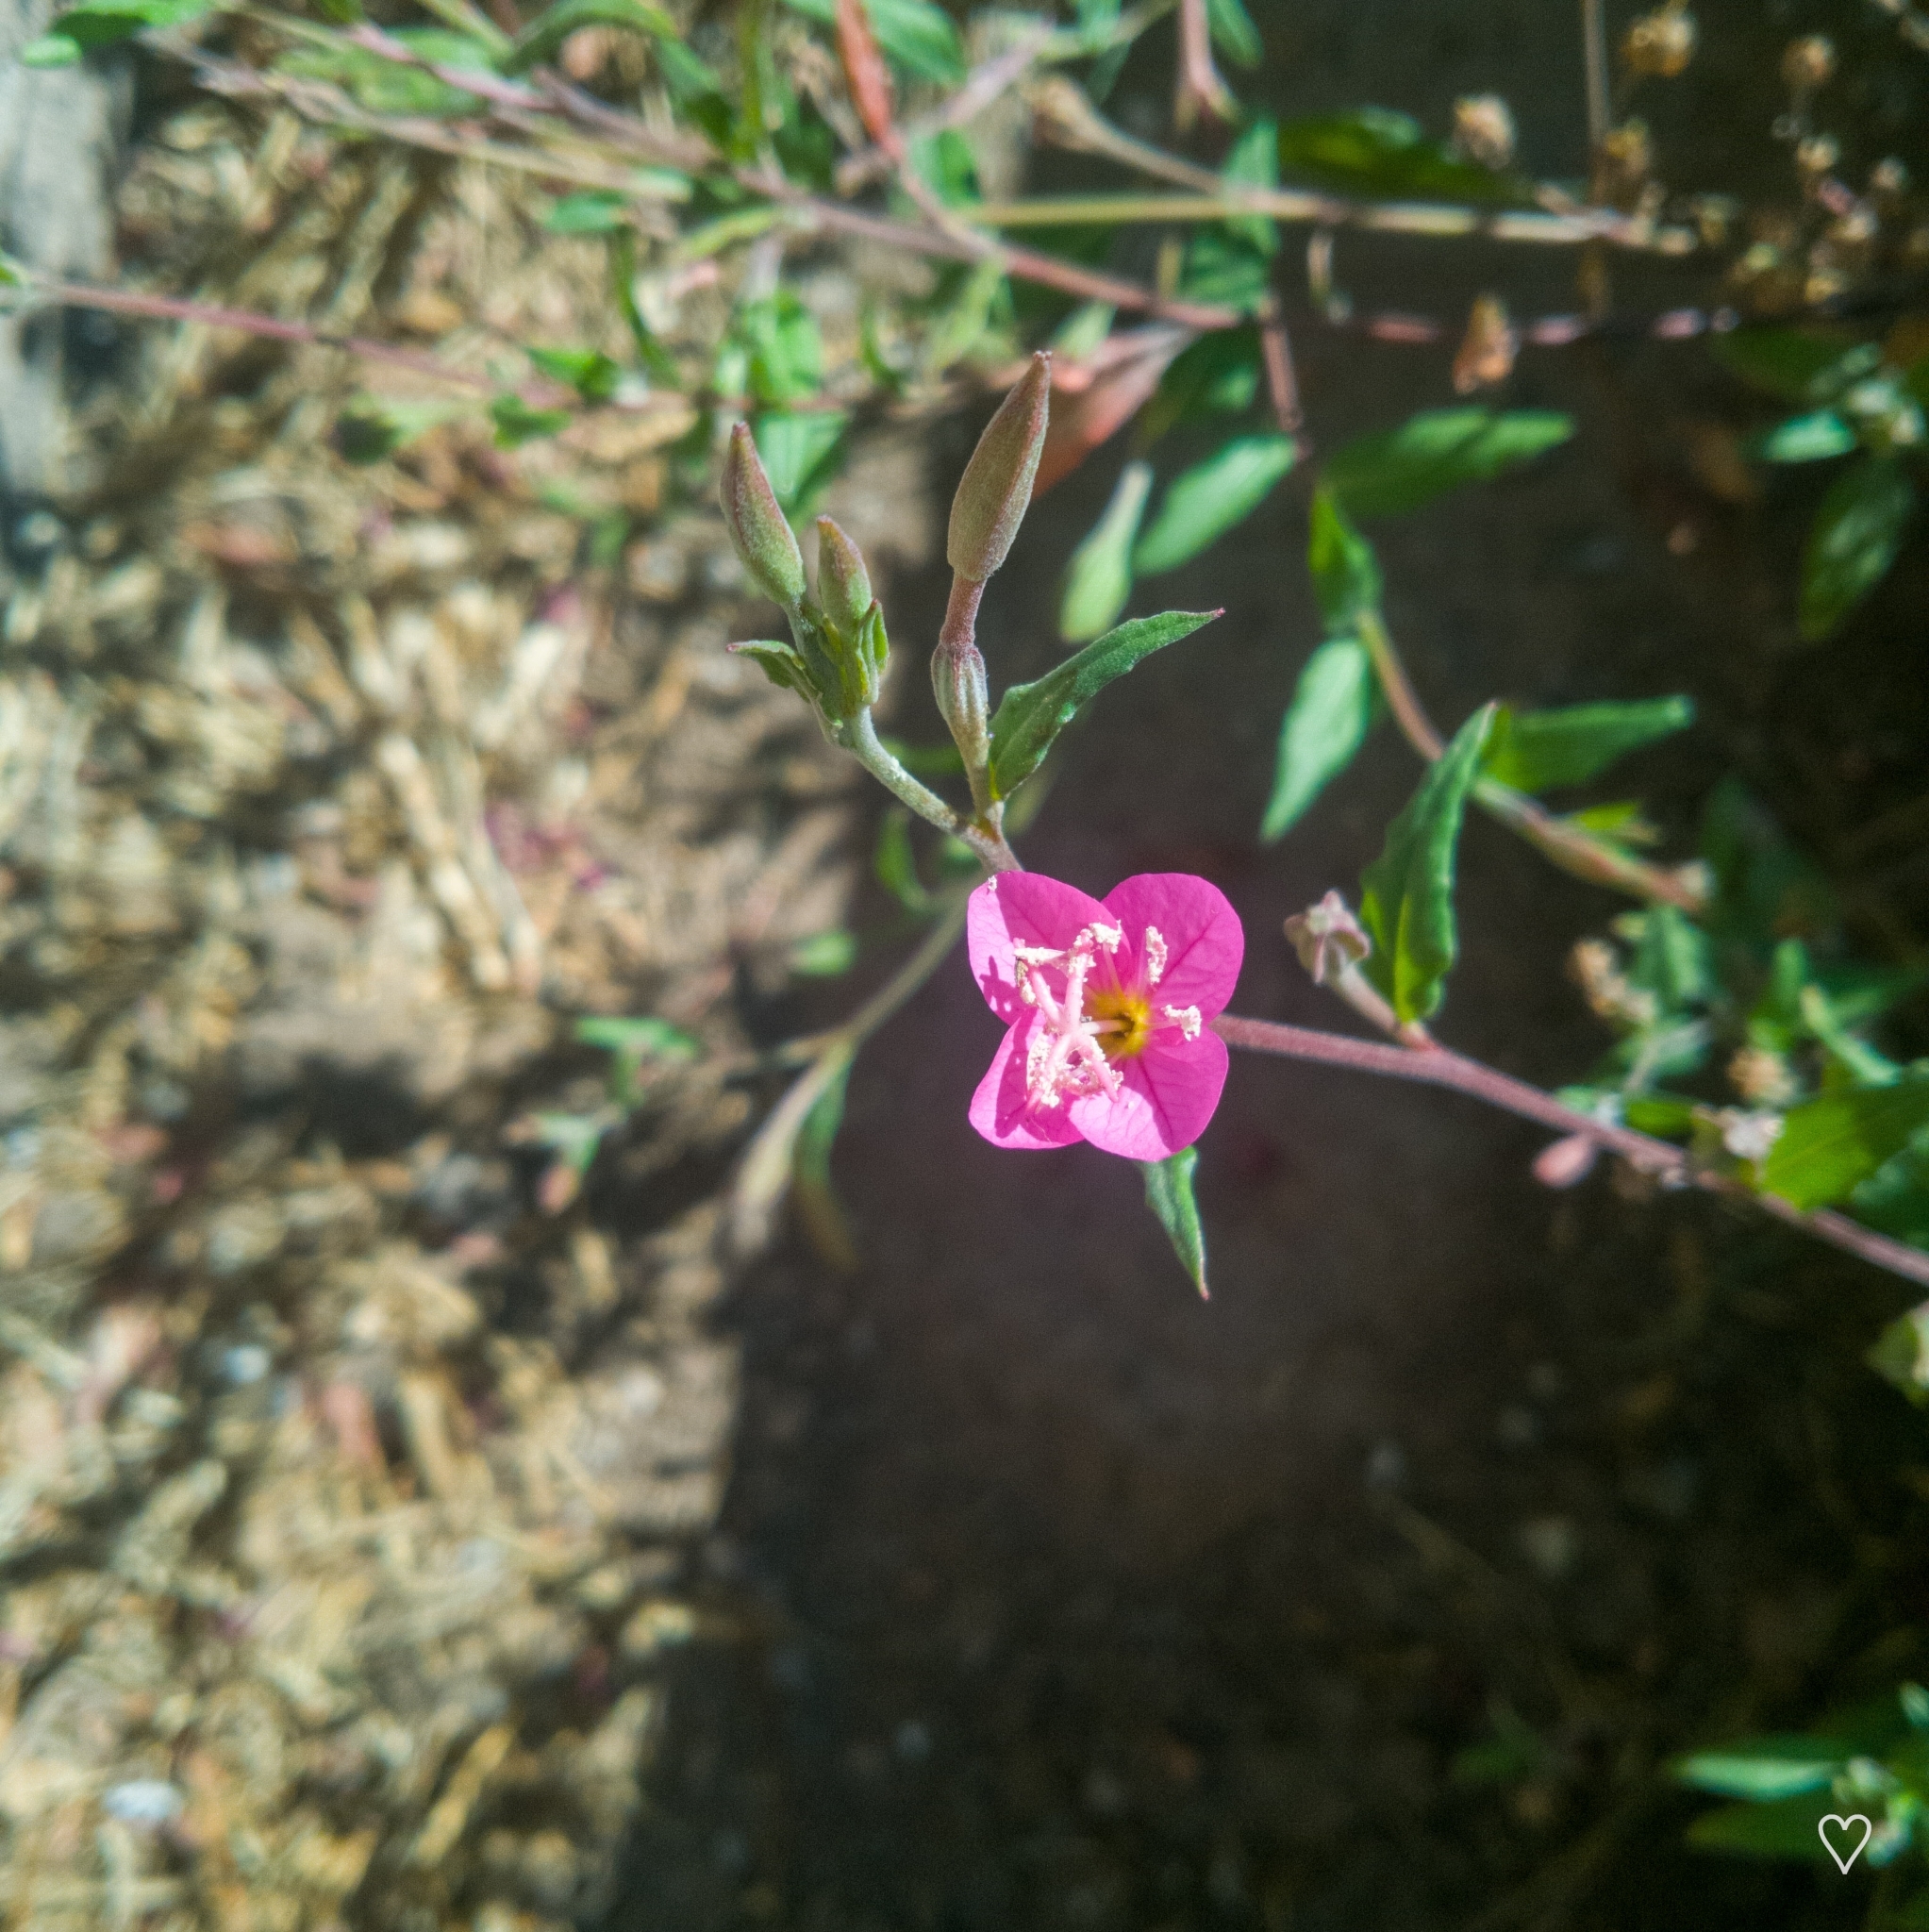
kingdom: Plantae
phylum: Tracheophyta
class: Magnoliopsida
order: Myrtales
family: Onagraceae
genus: Oenothera
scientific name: Oenothera rosea
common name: Rosy evening-primrose
